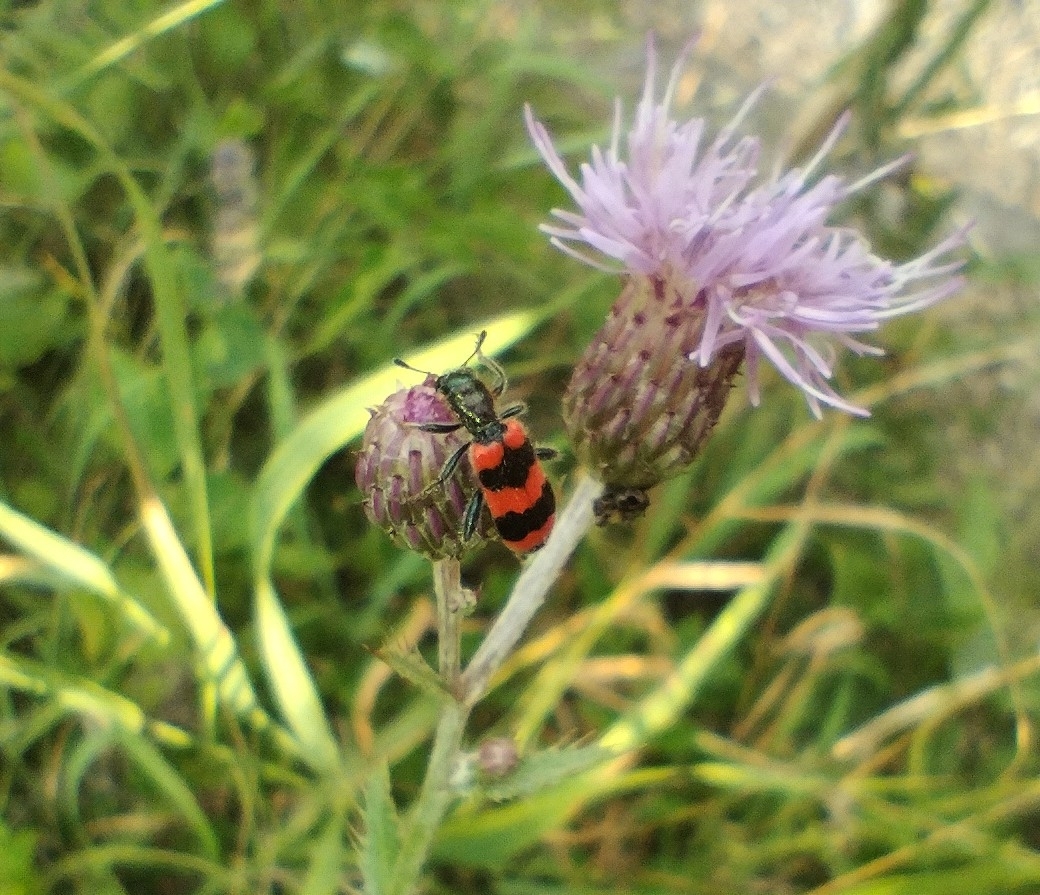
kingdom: Animalia
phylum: Arthropoda
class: Insecta
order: Coleoptera
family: Cleridae
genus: Trichodes
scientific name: Trichodes apiarius
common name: Bee-eating beetle
